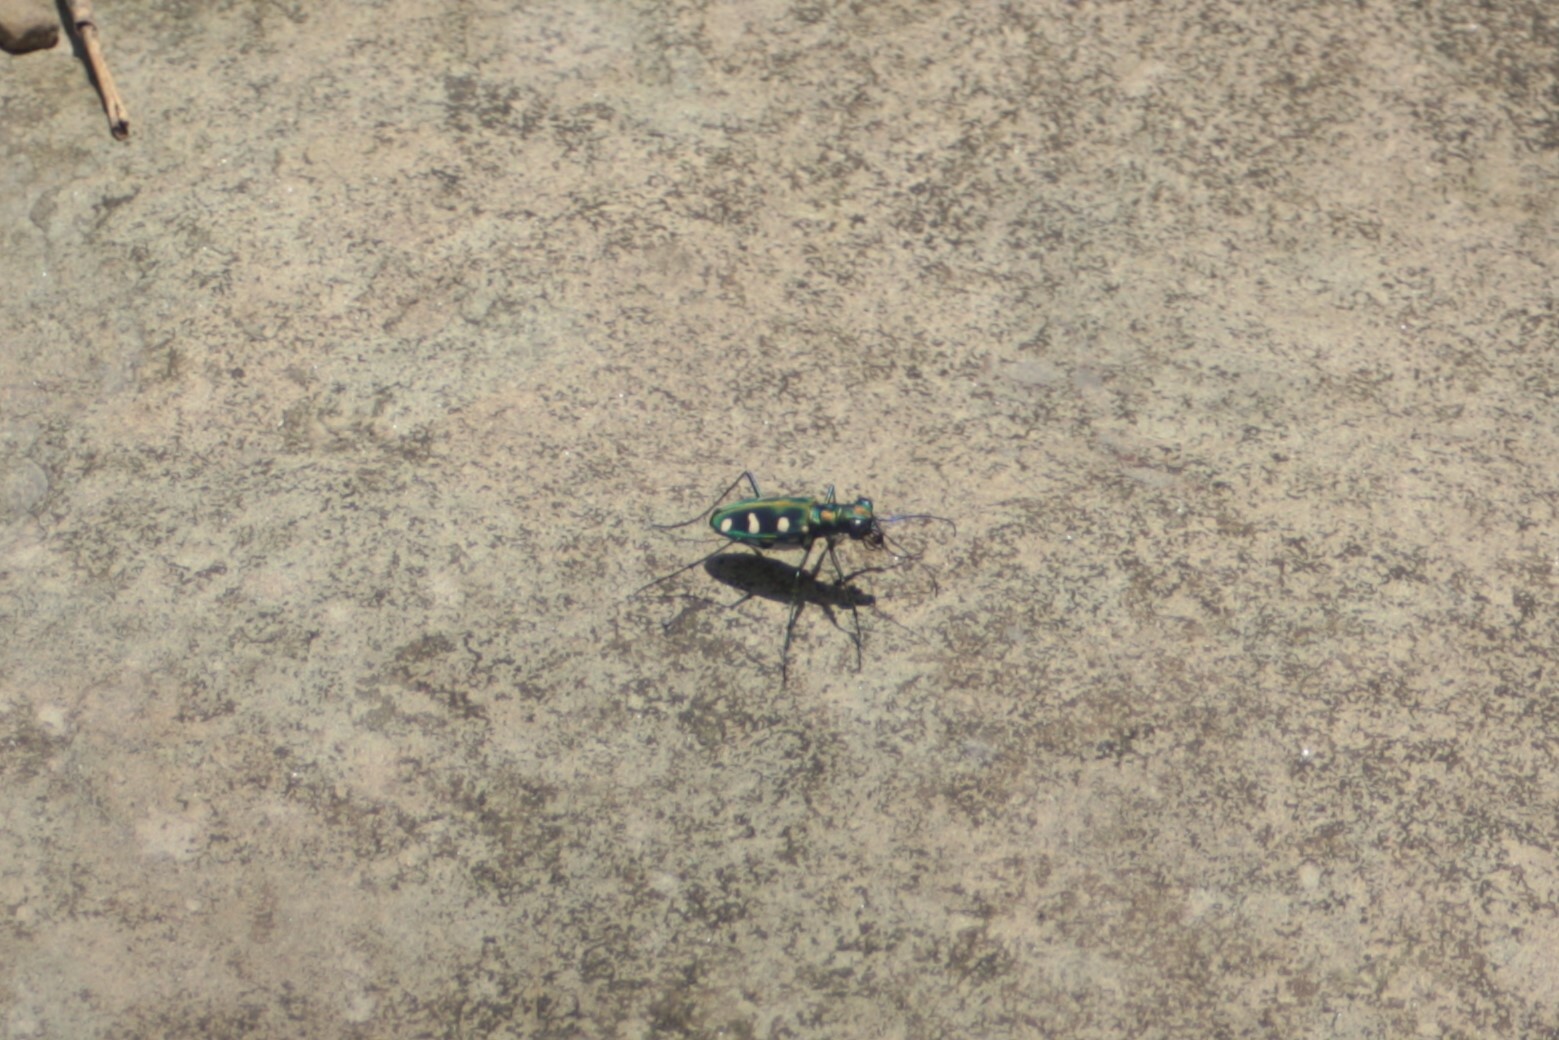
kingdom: Animalia
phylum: Arthropoda
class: Insecta
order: Coleoptera
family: Carabidae
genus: Cicindela
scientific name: Cicindela batesi
